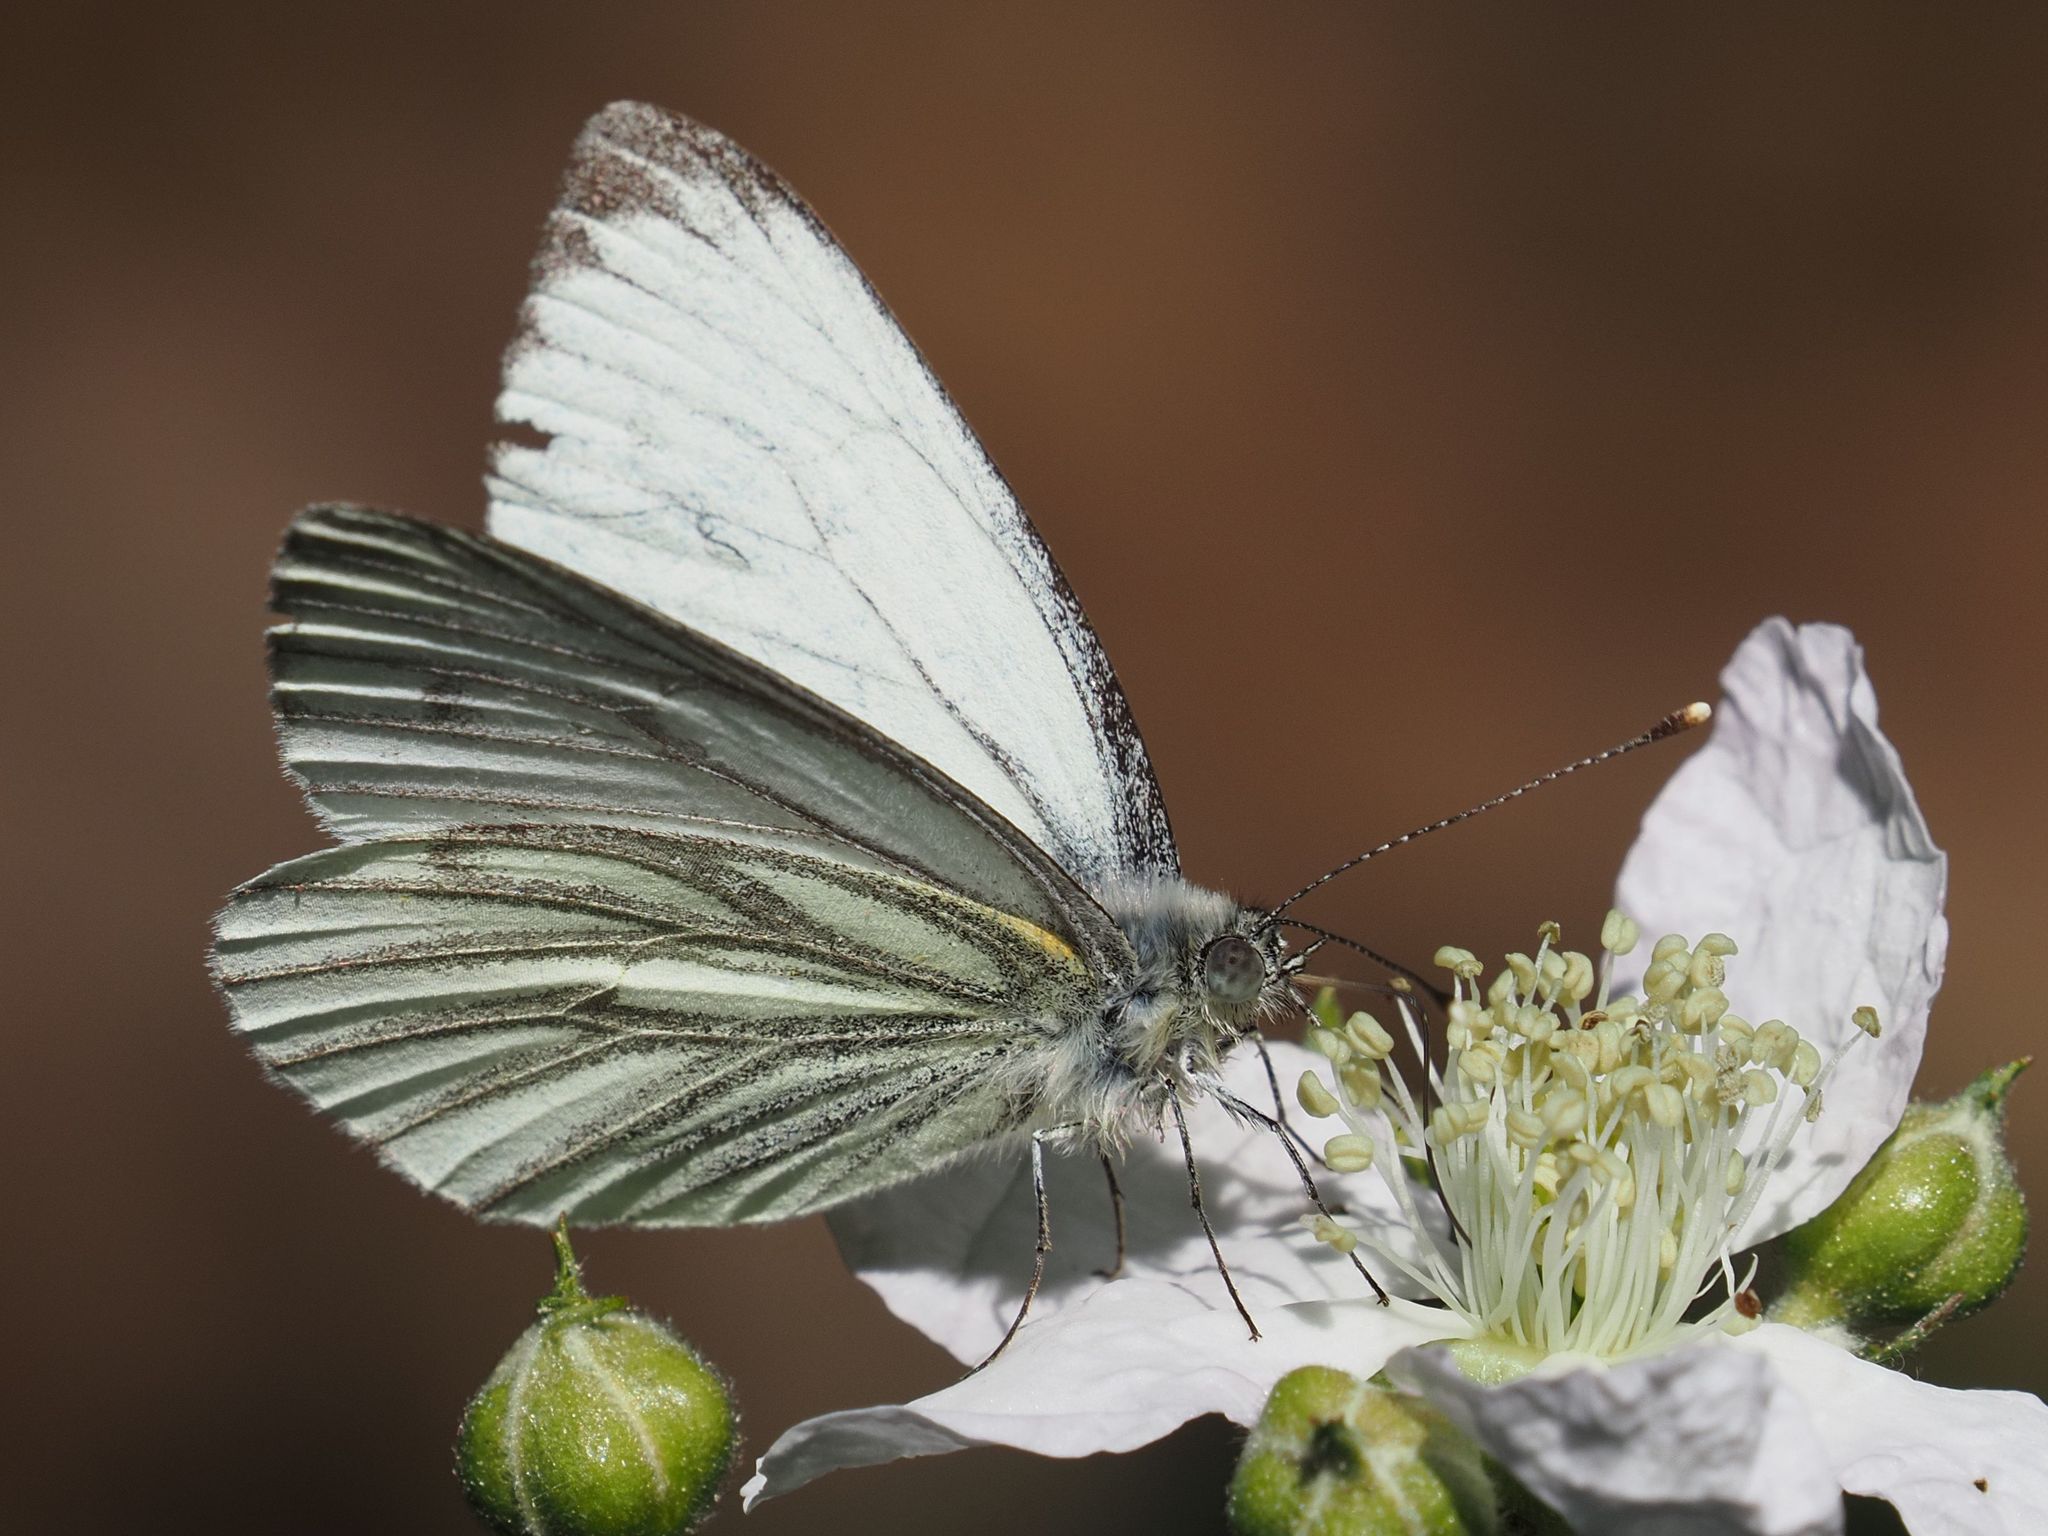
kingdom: Animalia
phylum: Arthropoda
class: Insecta
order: Lepidoptera
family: Pieridae
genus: Pieris
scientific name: Pieris napi
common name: Green-veined white
